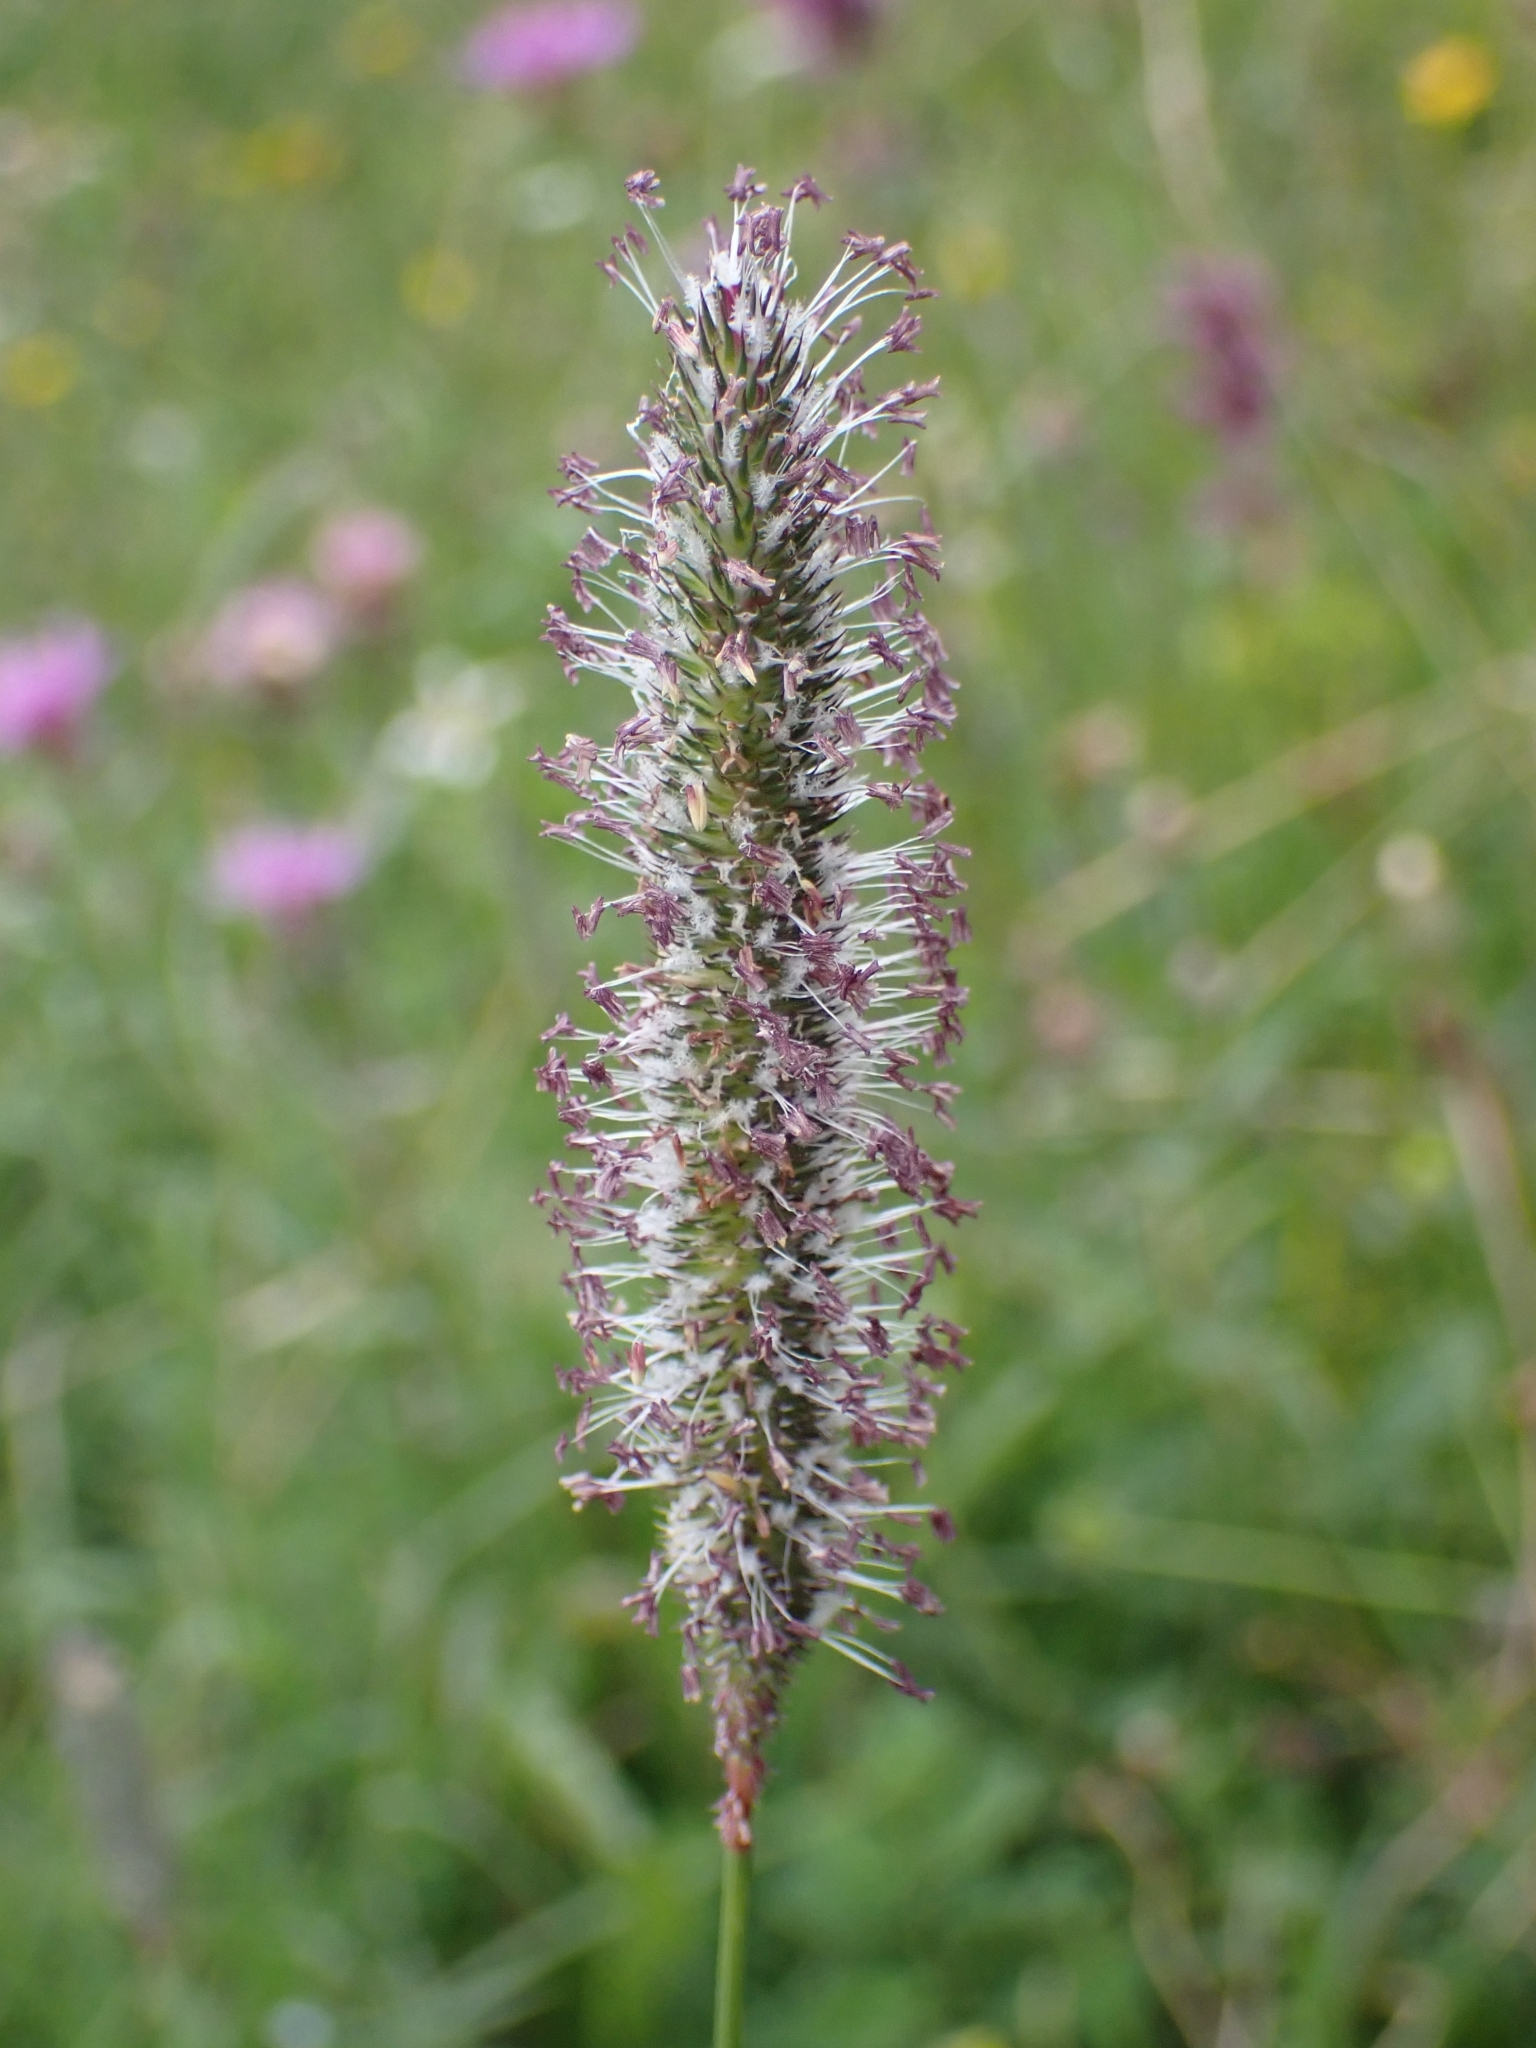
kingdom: Plantae
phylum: Tracheophyta
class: Liliopsida
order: Poales
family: Poaceae
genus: Phleum
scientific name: Phleum pratense
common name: Timothy grass
